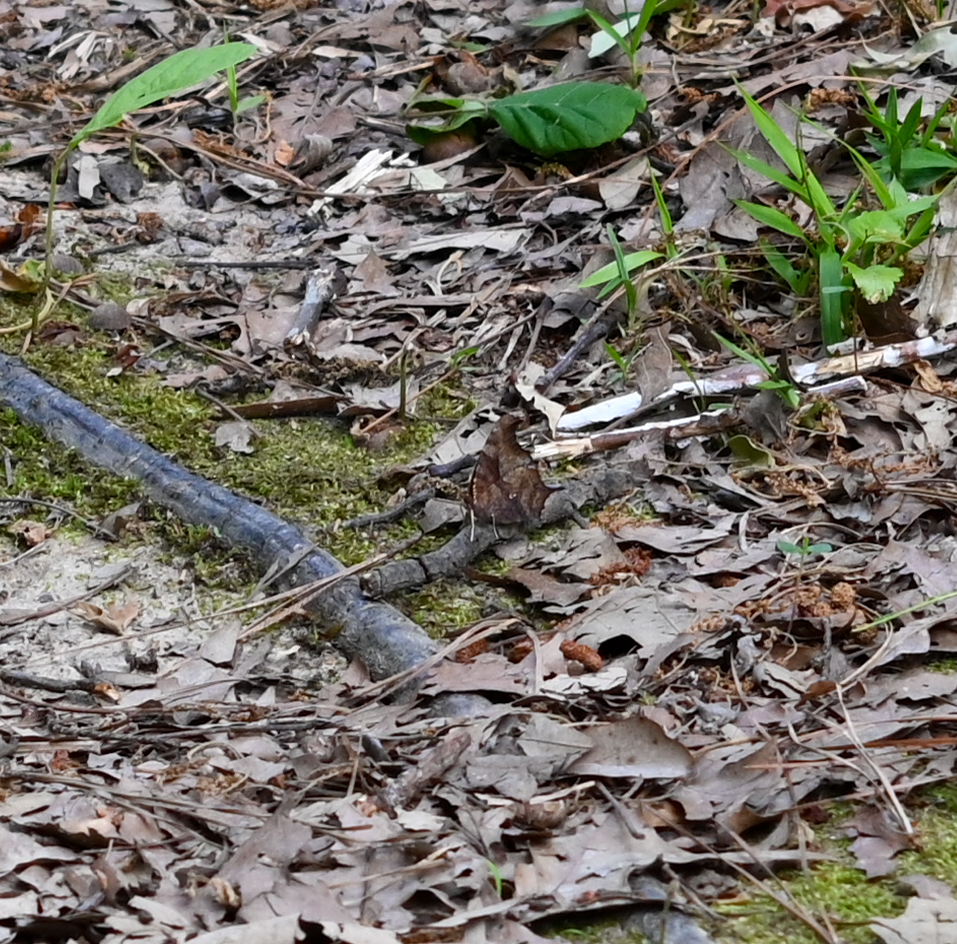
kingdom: Animalia
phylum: Arthropoda
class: Insecta
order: Lepidoptera
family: Nymphalidae
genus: Polygonia
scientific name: Polygonia interrogationis
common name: Question mark
